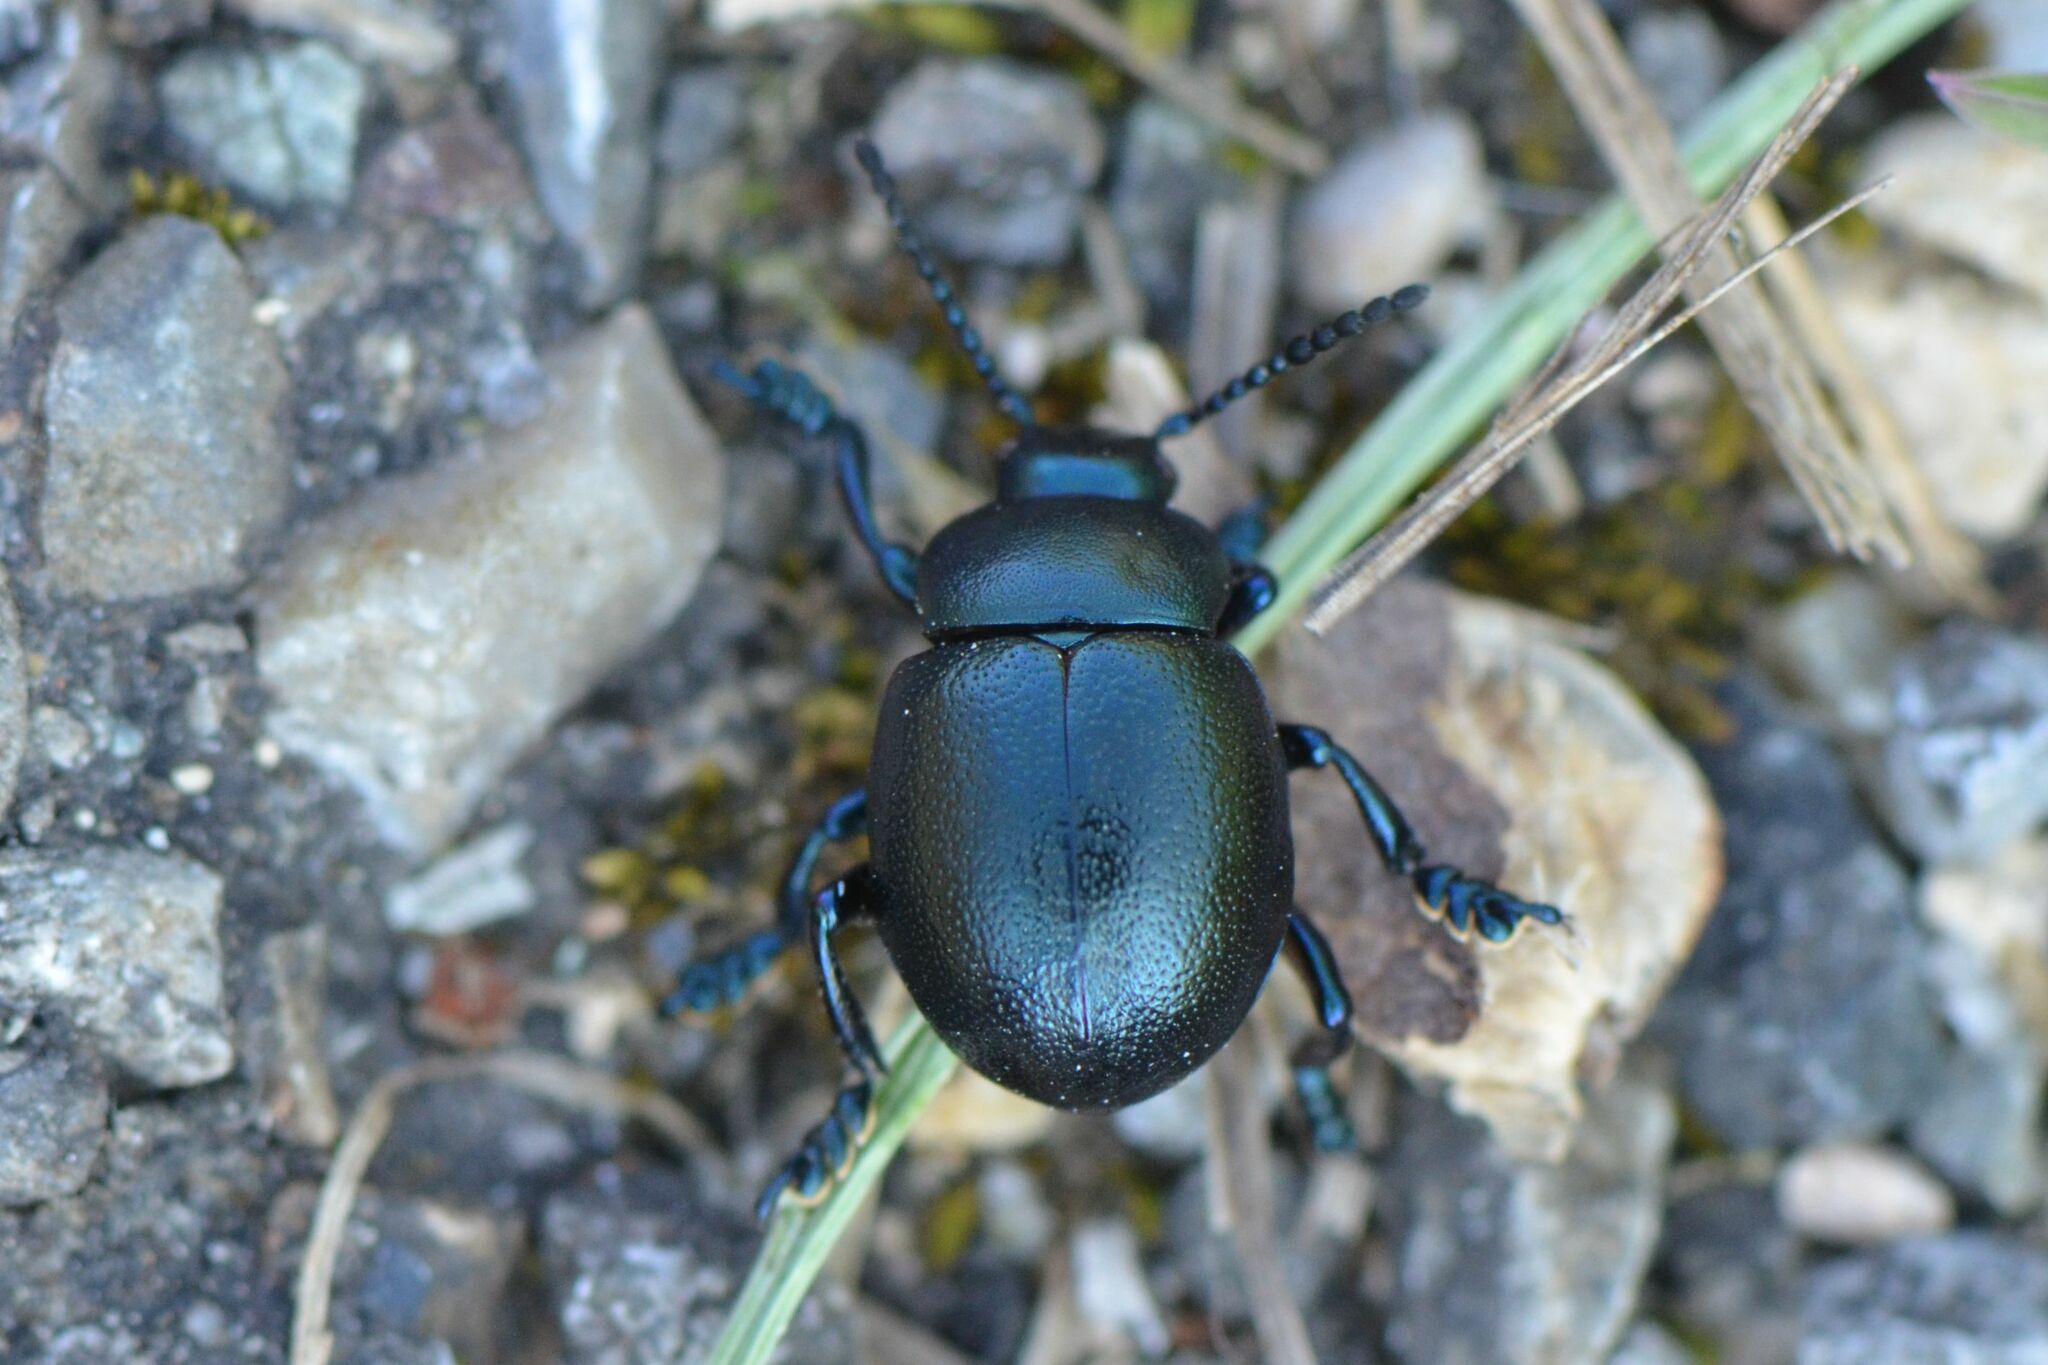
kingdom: Animalia
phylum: Arthropoda
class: Insecta
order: Coleoptera
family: Chrysomelidae
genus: Timarcha
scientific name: Timarcha goettingensis
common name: Small bloody-nosed beetle
